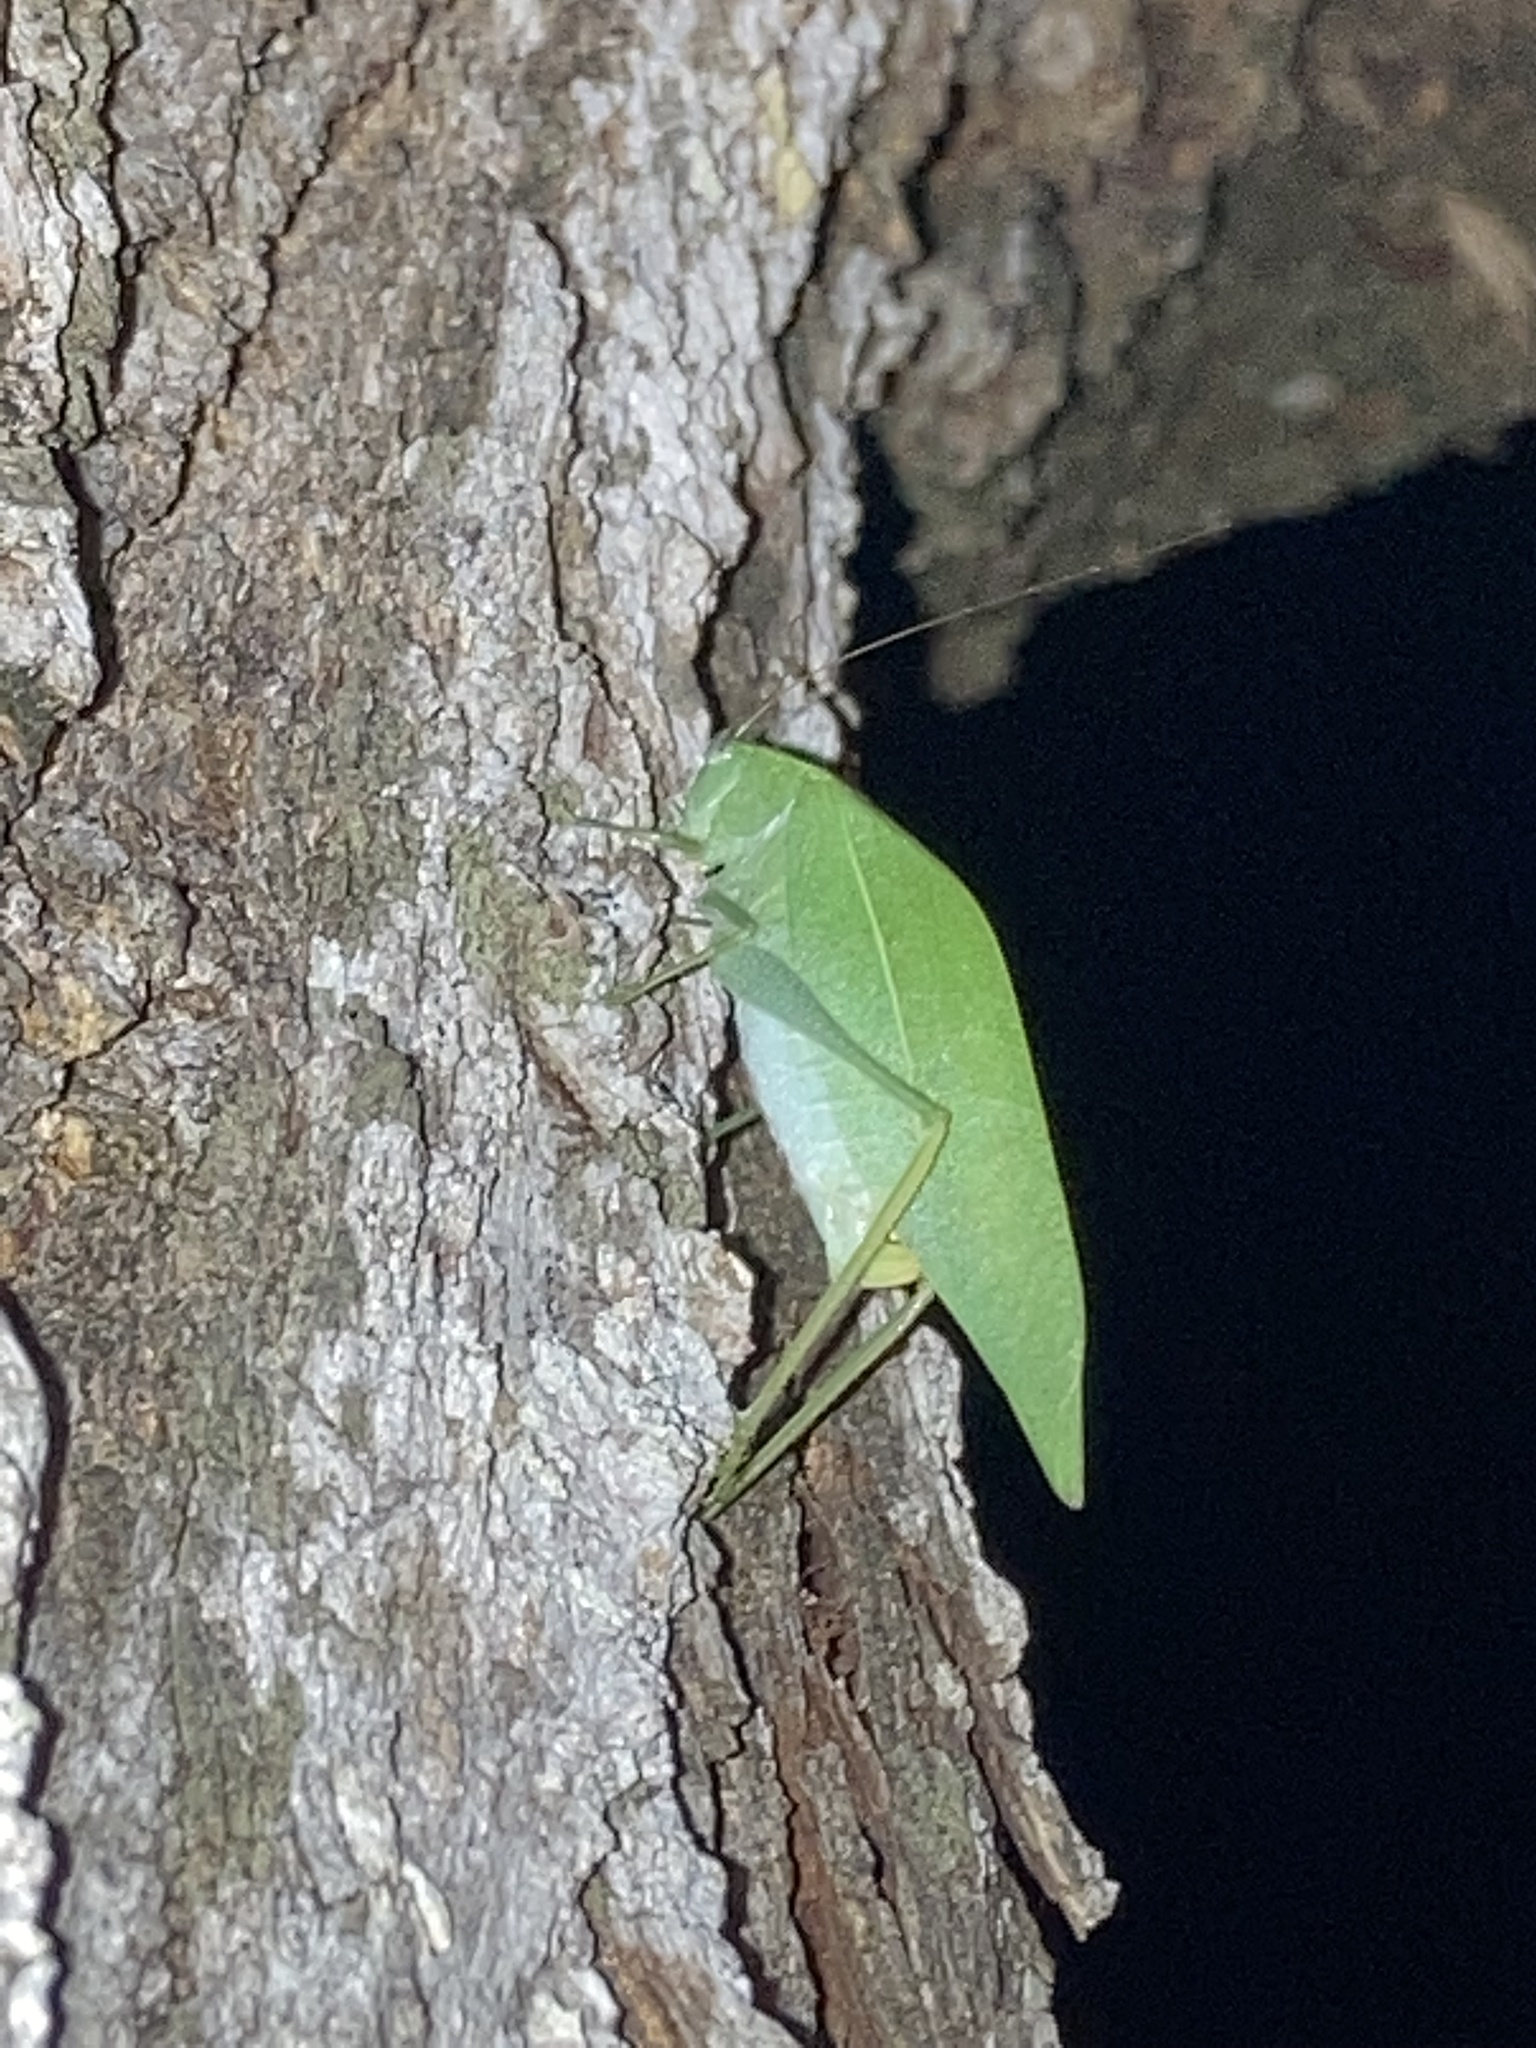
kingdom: Animalia
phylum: Arthropoda
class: Insecta
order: Orthoptera
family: Tettigoniidae
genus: Microcentrum
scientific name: Microcentrum rhombifolium
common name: Broad-winged katydid
